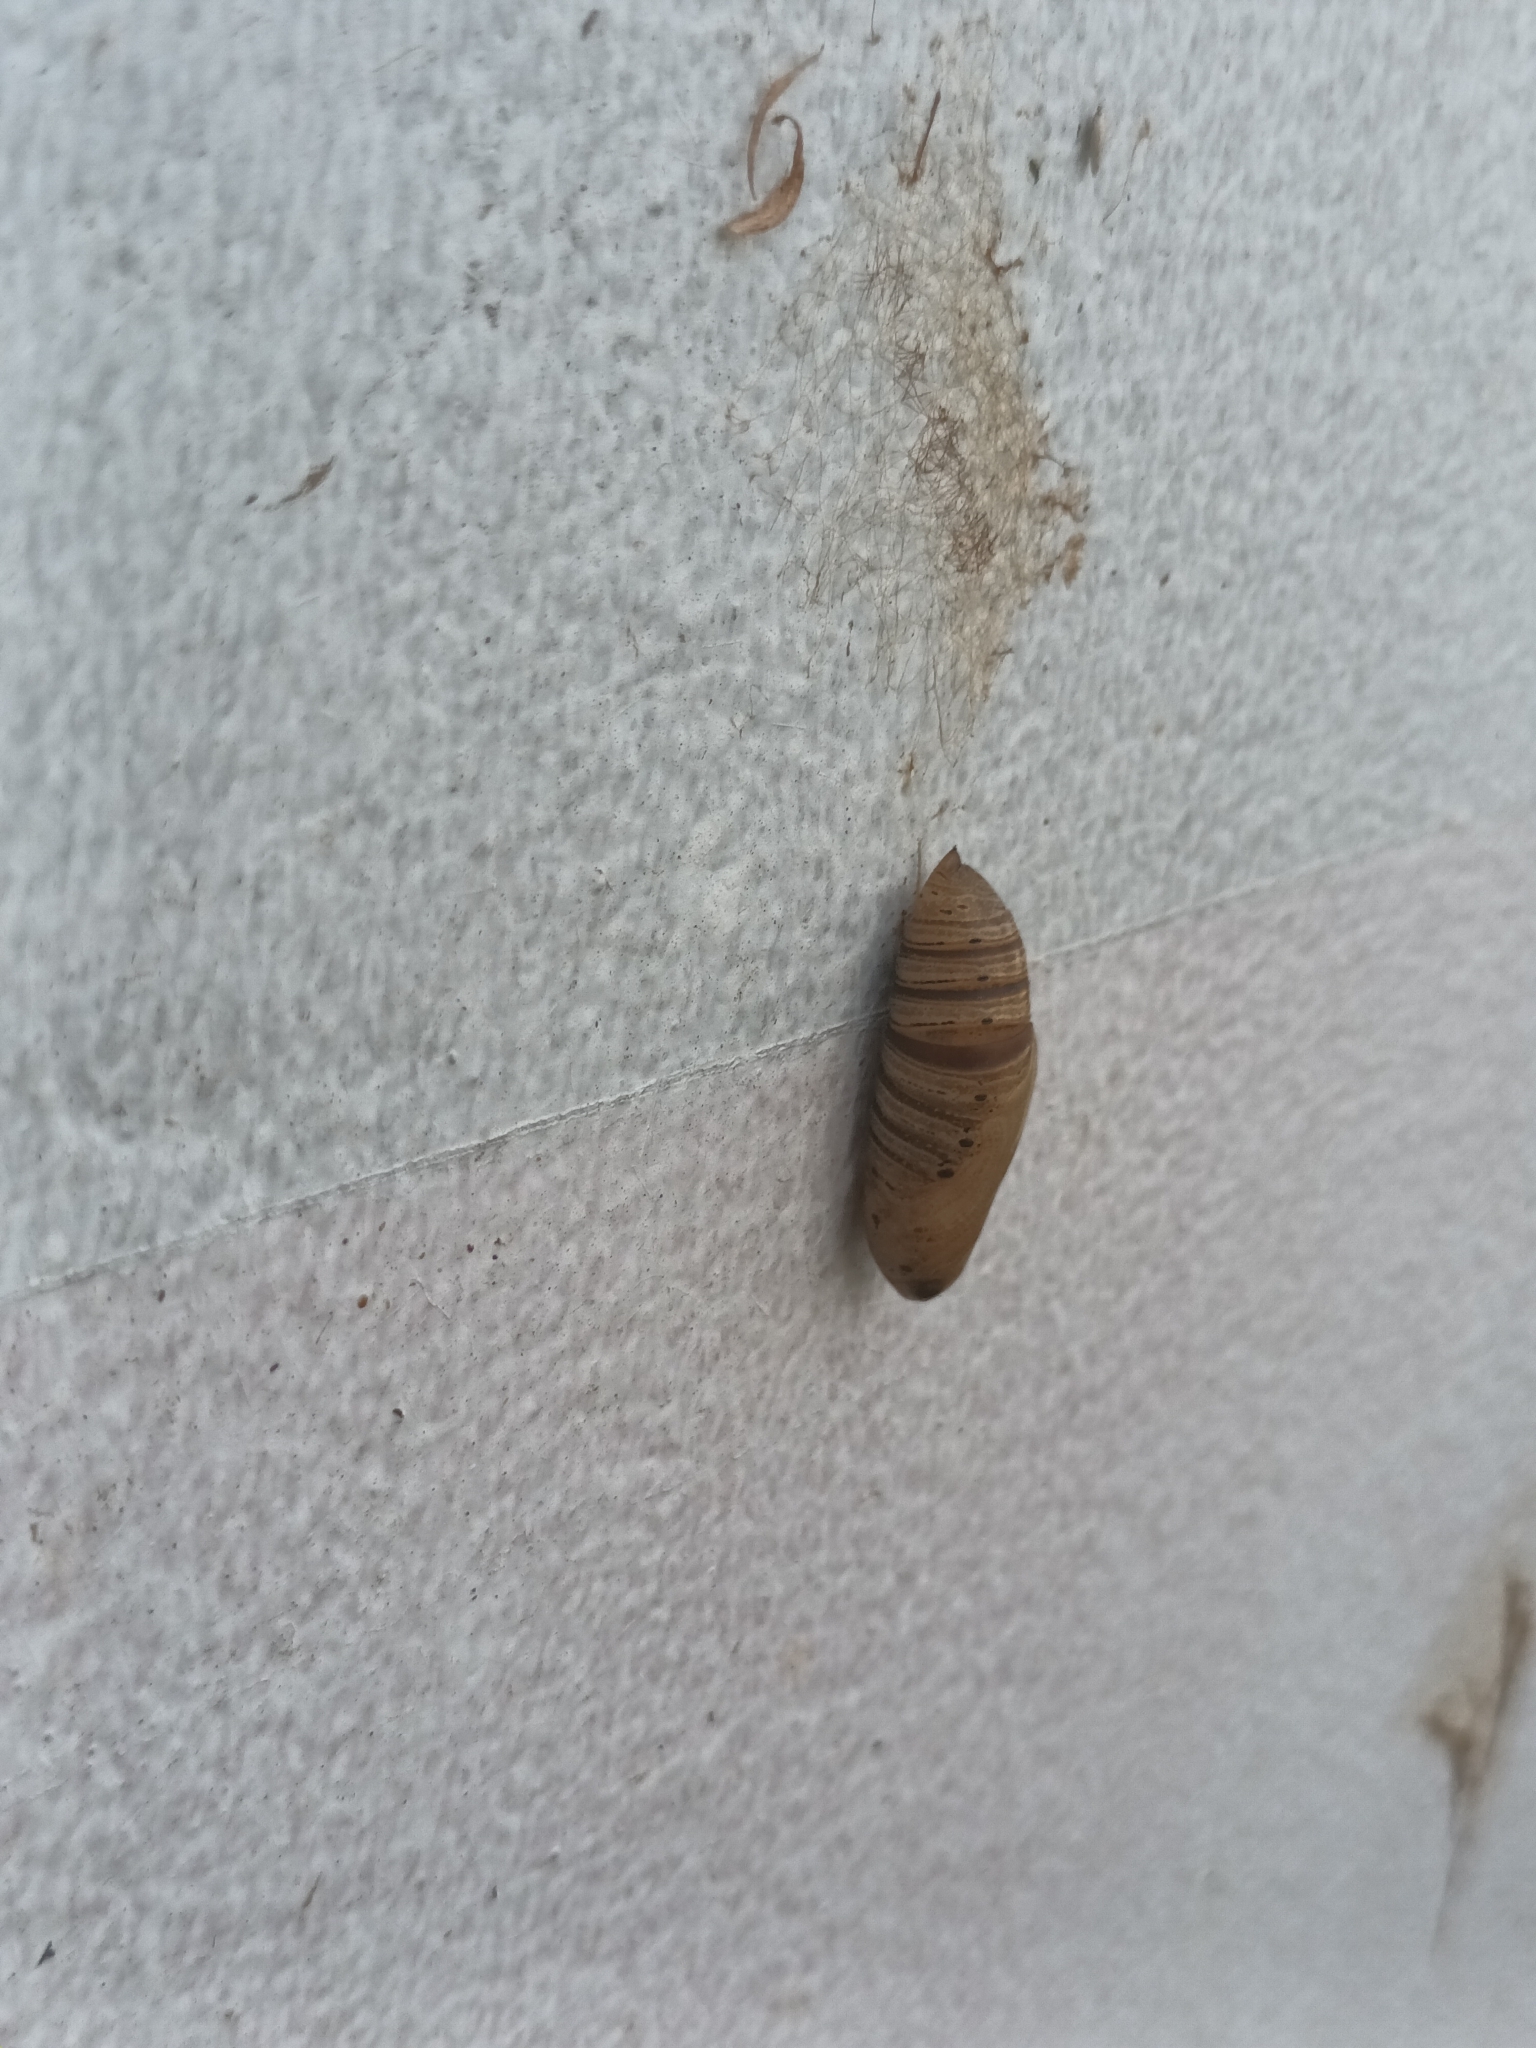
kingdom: Animalia
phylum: Arthropoda
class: Insecta
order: Lepidoptera
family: Sphingidae
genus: Neogurelca
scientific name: Neogurelca hyas
